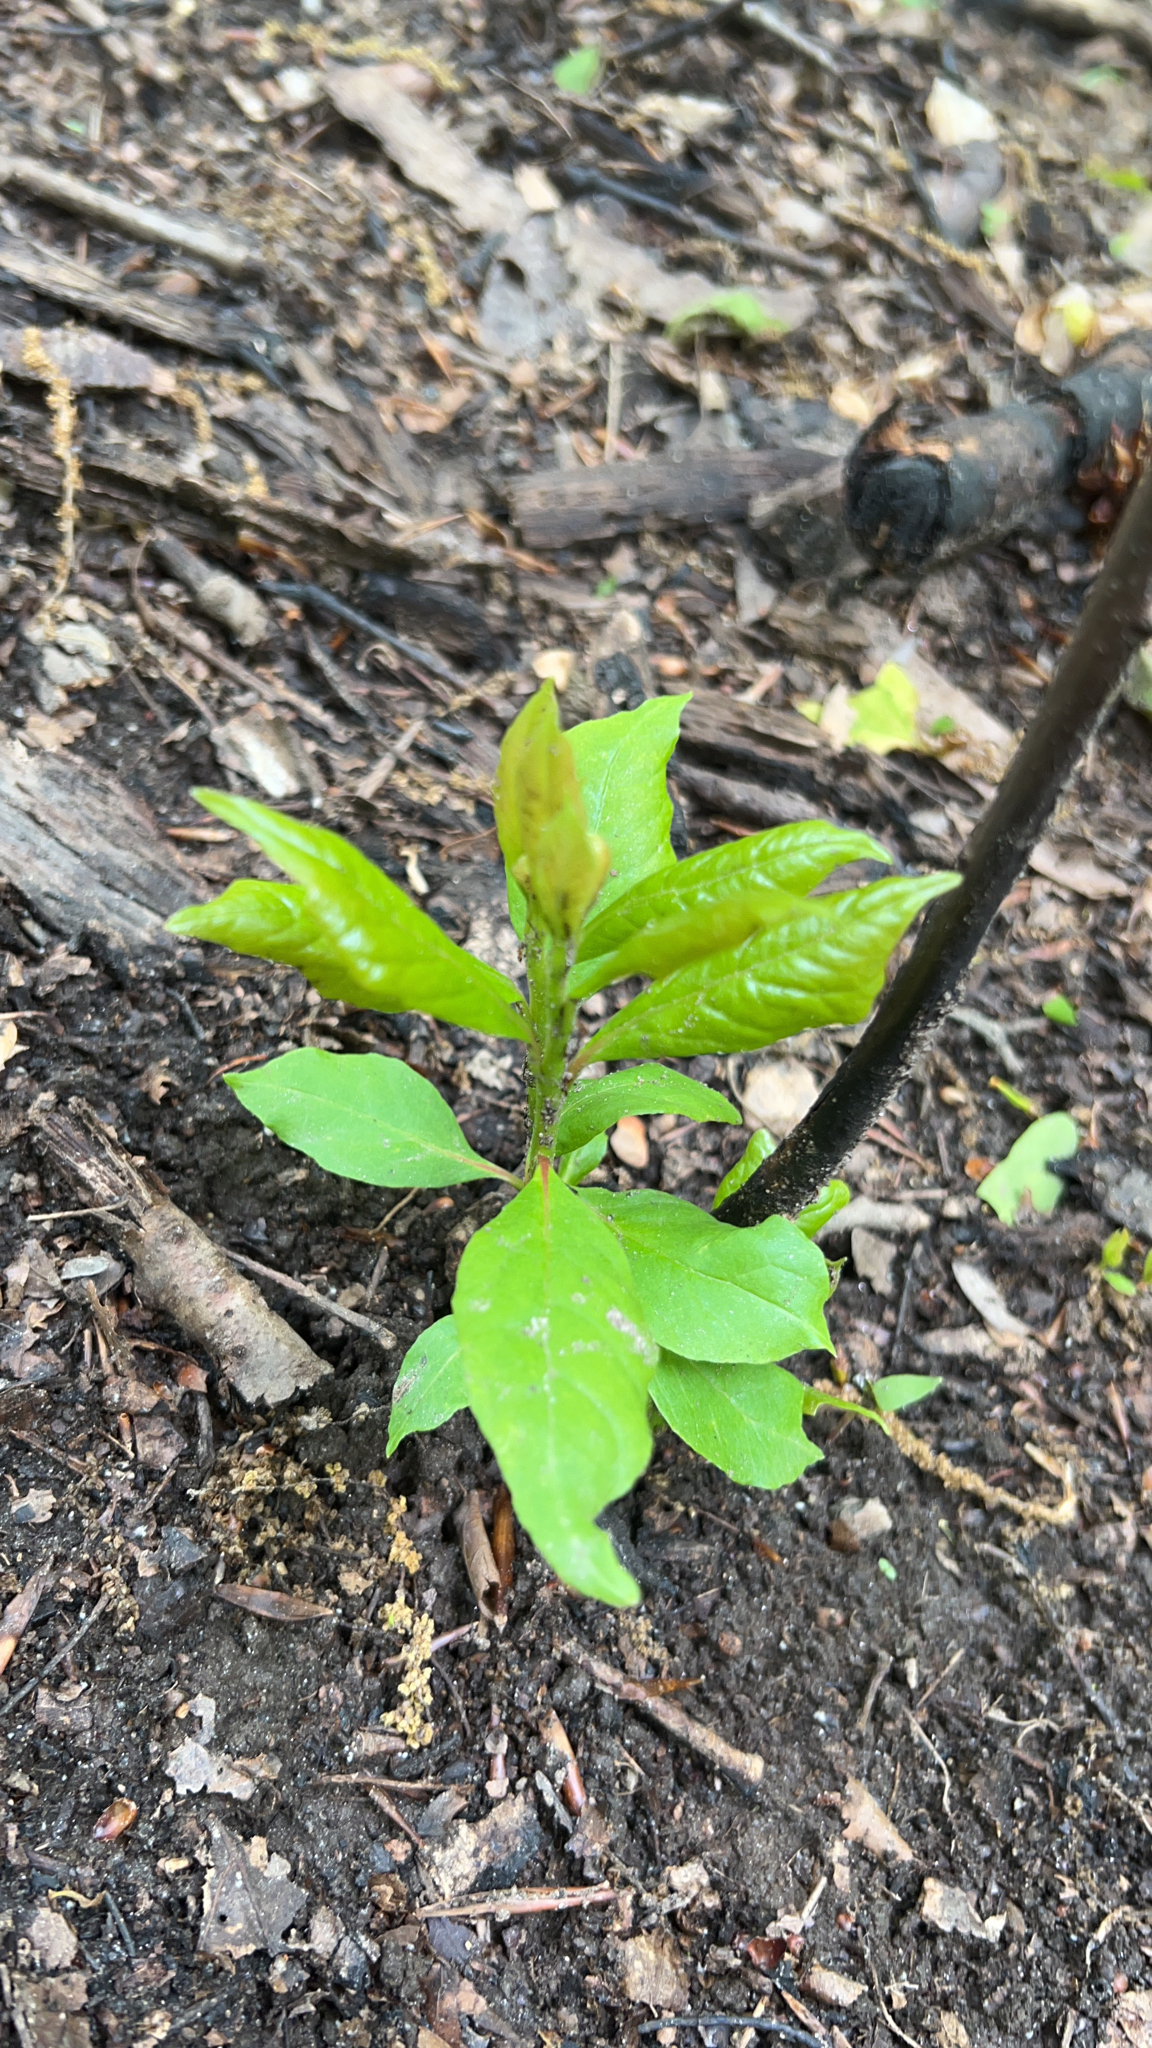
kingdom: Plantae
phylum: Tracheophyta
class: Magnoliopsida
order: Cornales
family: Nyssaceae
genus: Nyssa
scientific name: Nyssa sylvatica
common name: Black tupelo
